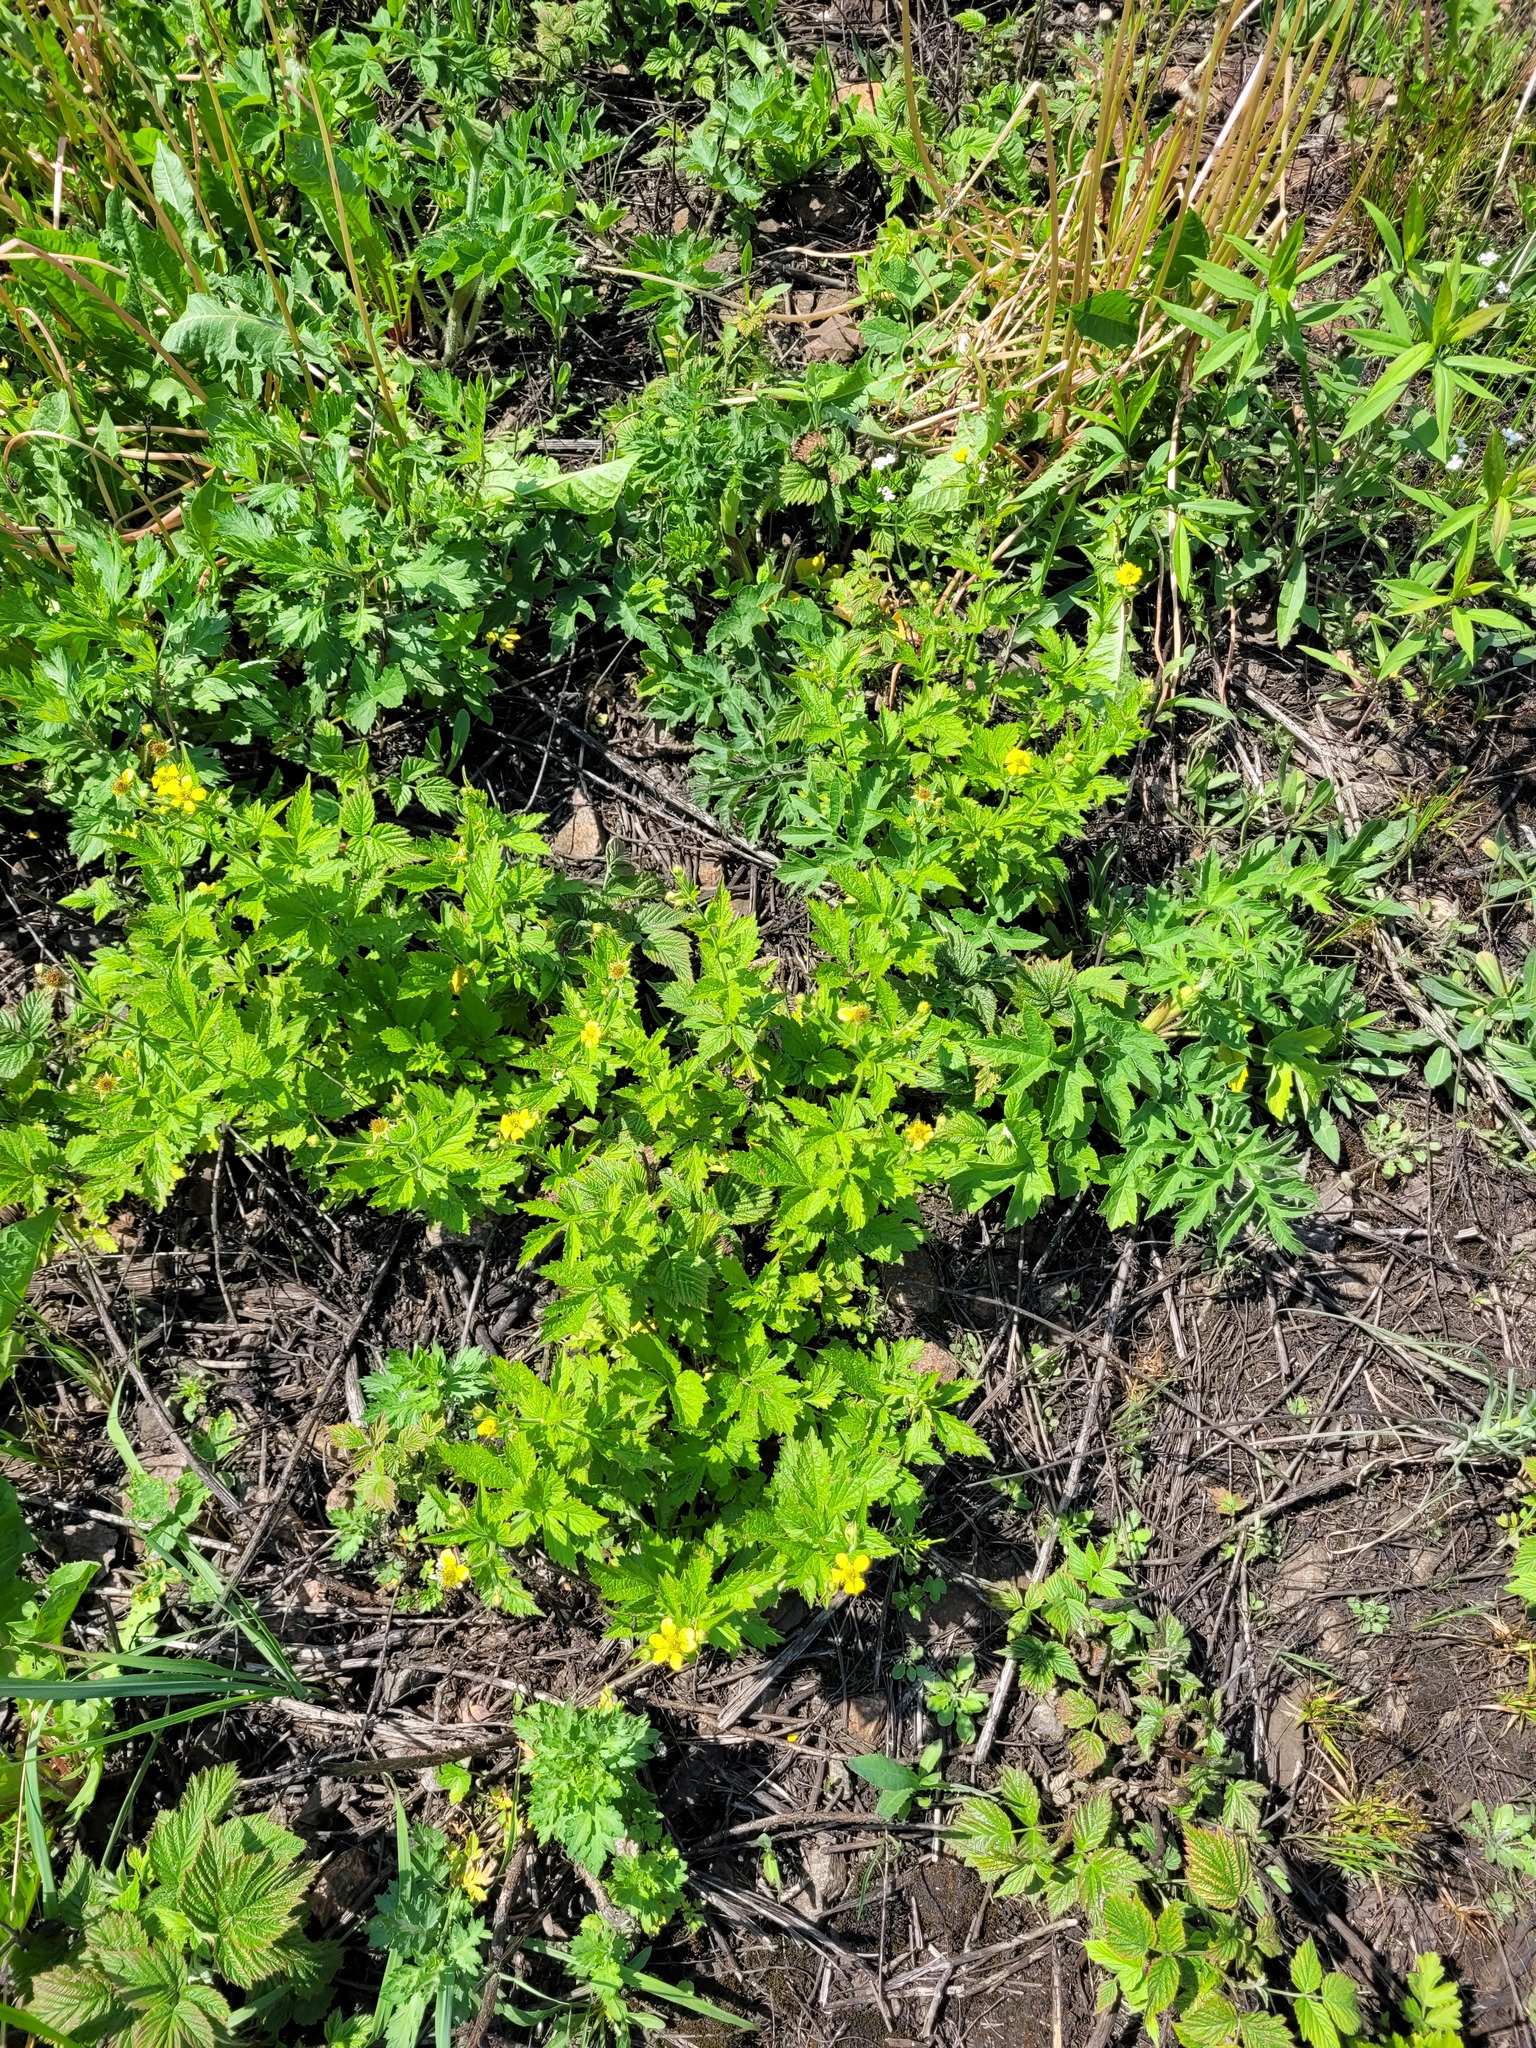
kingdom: Plantae
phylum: Tracheophyta
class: Magnoliopsida
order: Rosales
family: Rosaceae
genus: Geum
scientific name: Geum urbanum
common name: Wood avens
